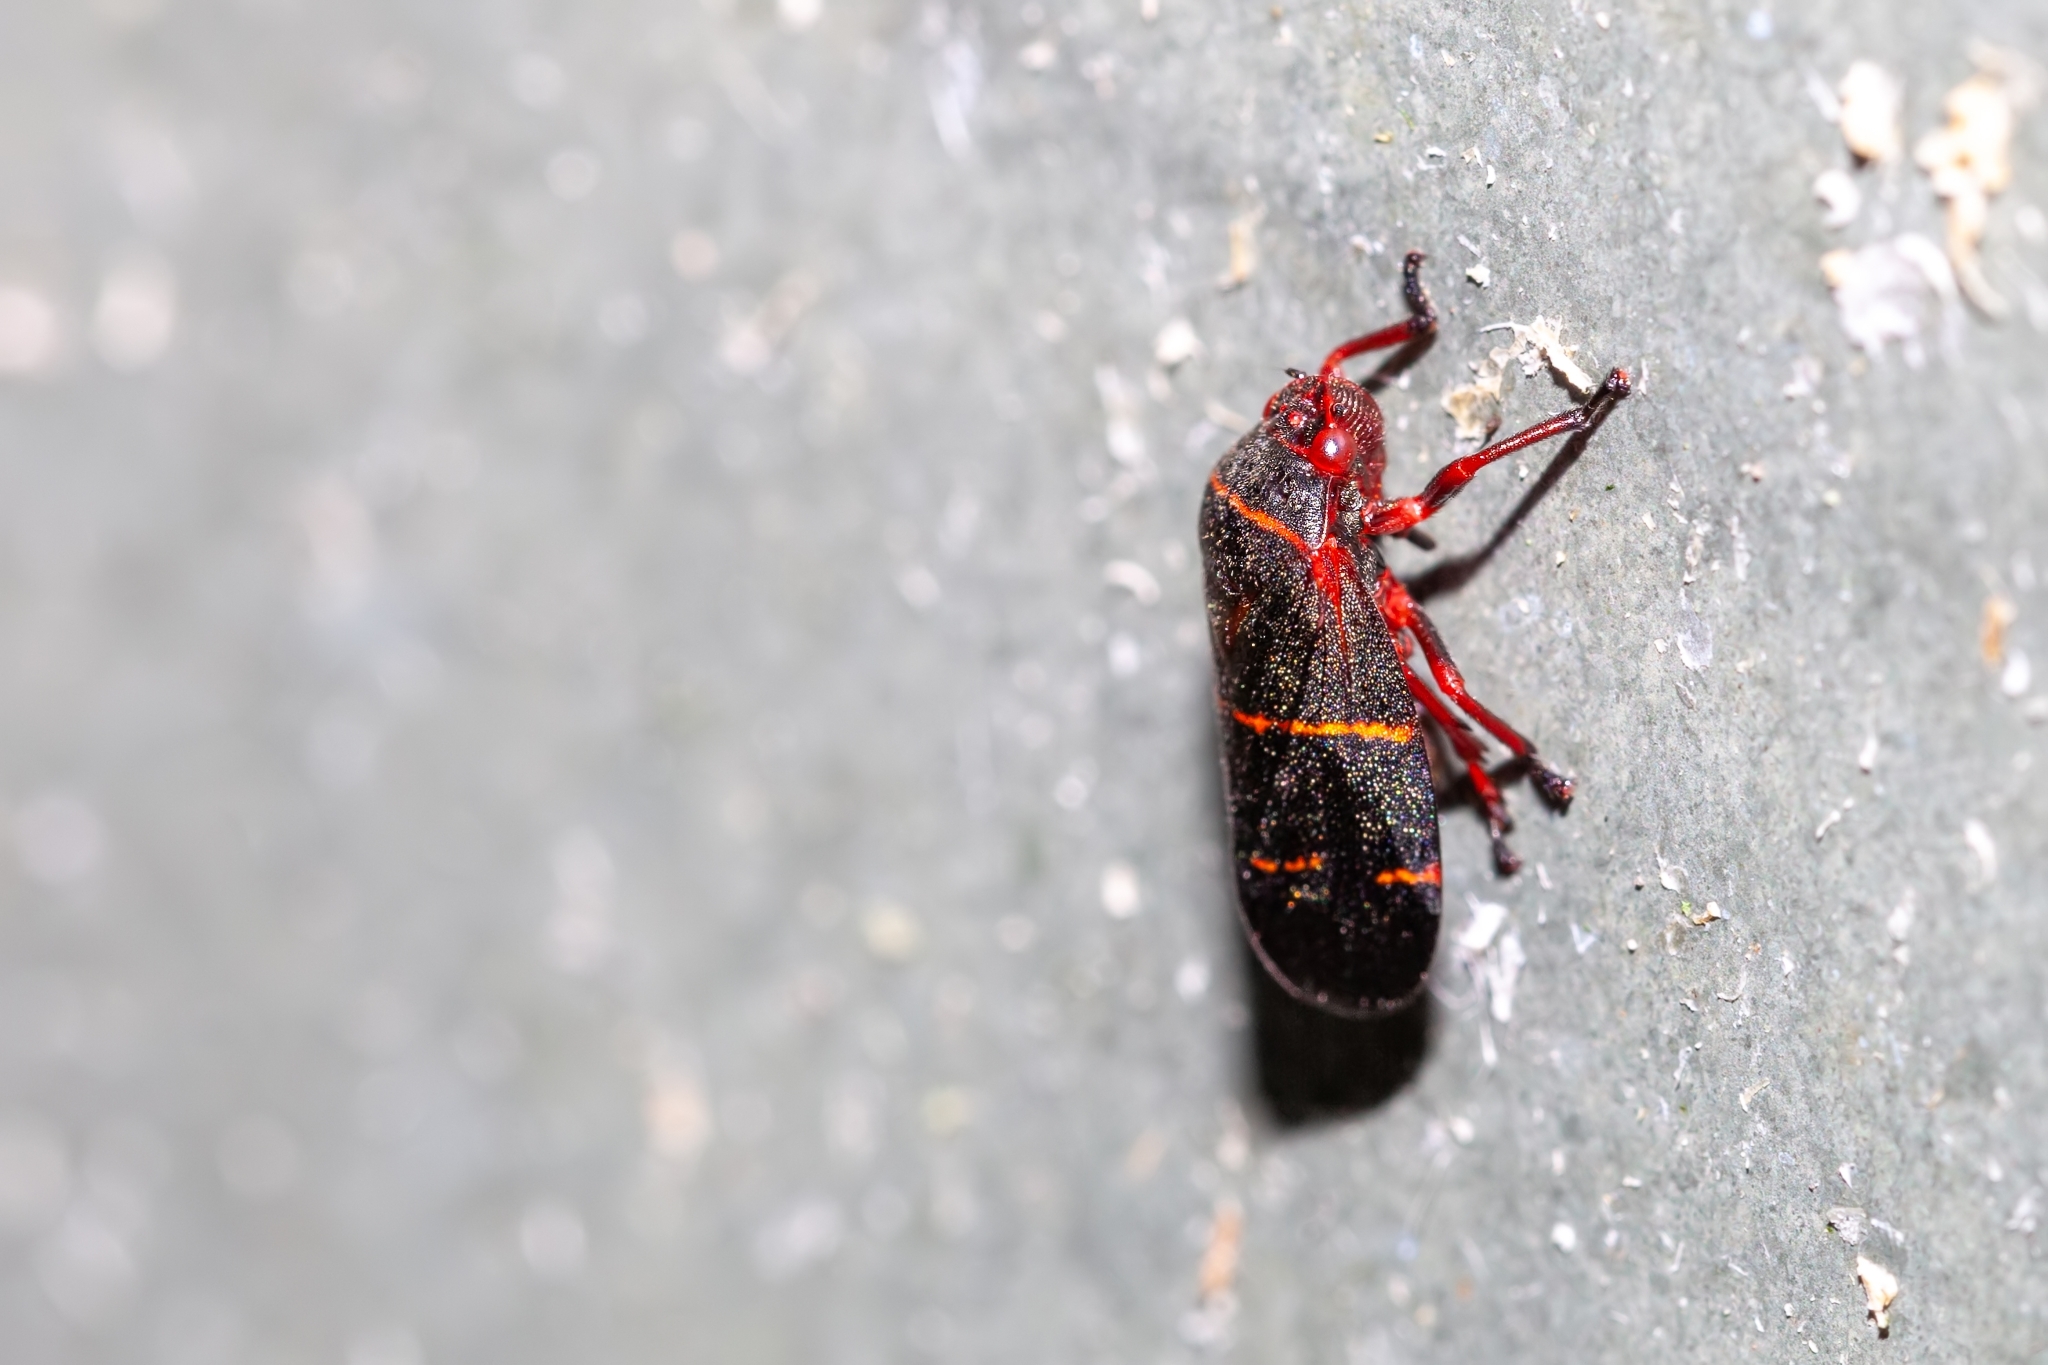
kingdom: Animalia
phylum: Arthropoda
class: Insecta
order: Hemiptera
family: Cercopidae
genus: Prosapia
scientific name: Prosapia bicincta
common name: Twolined spittlebug
